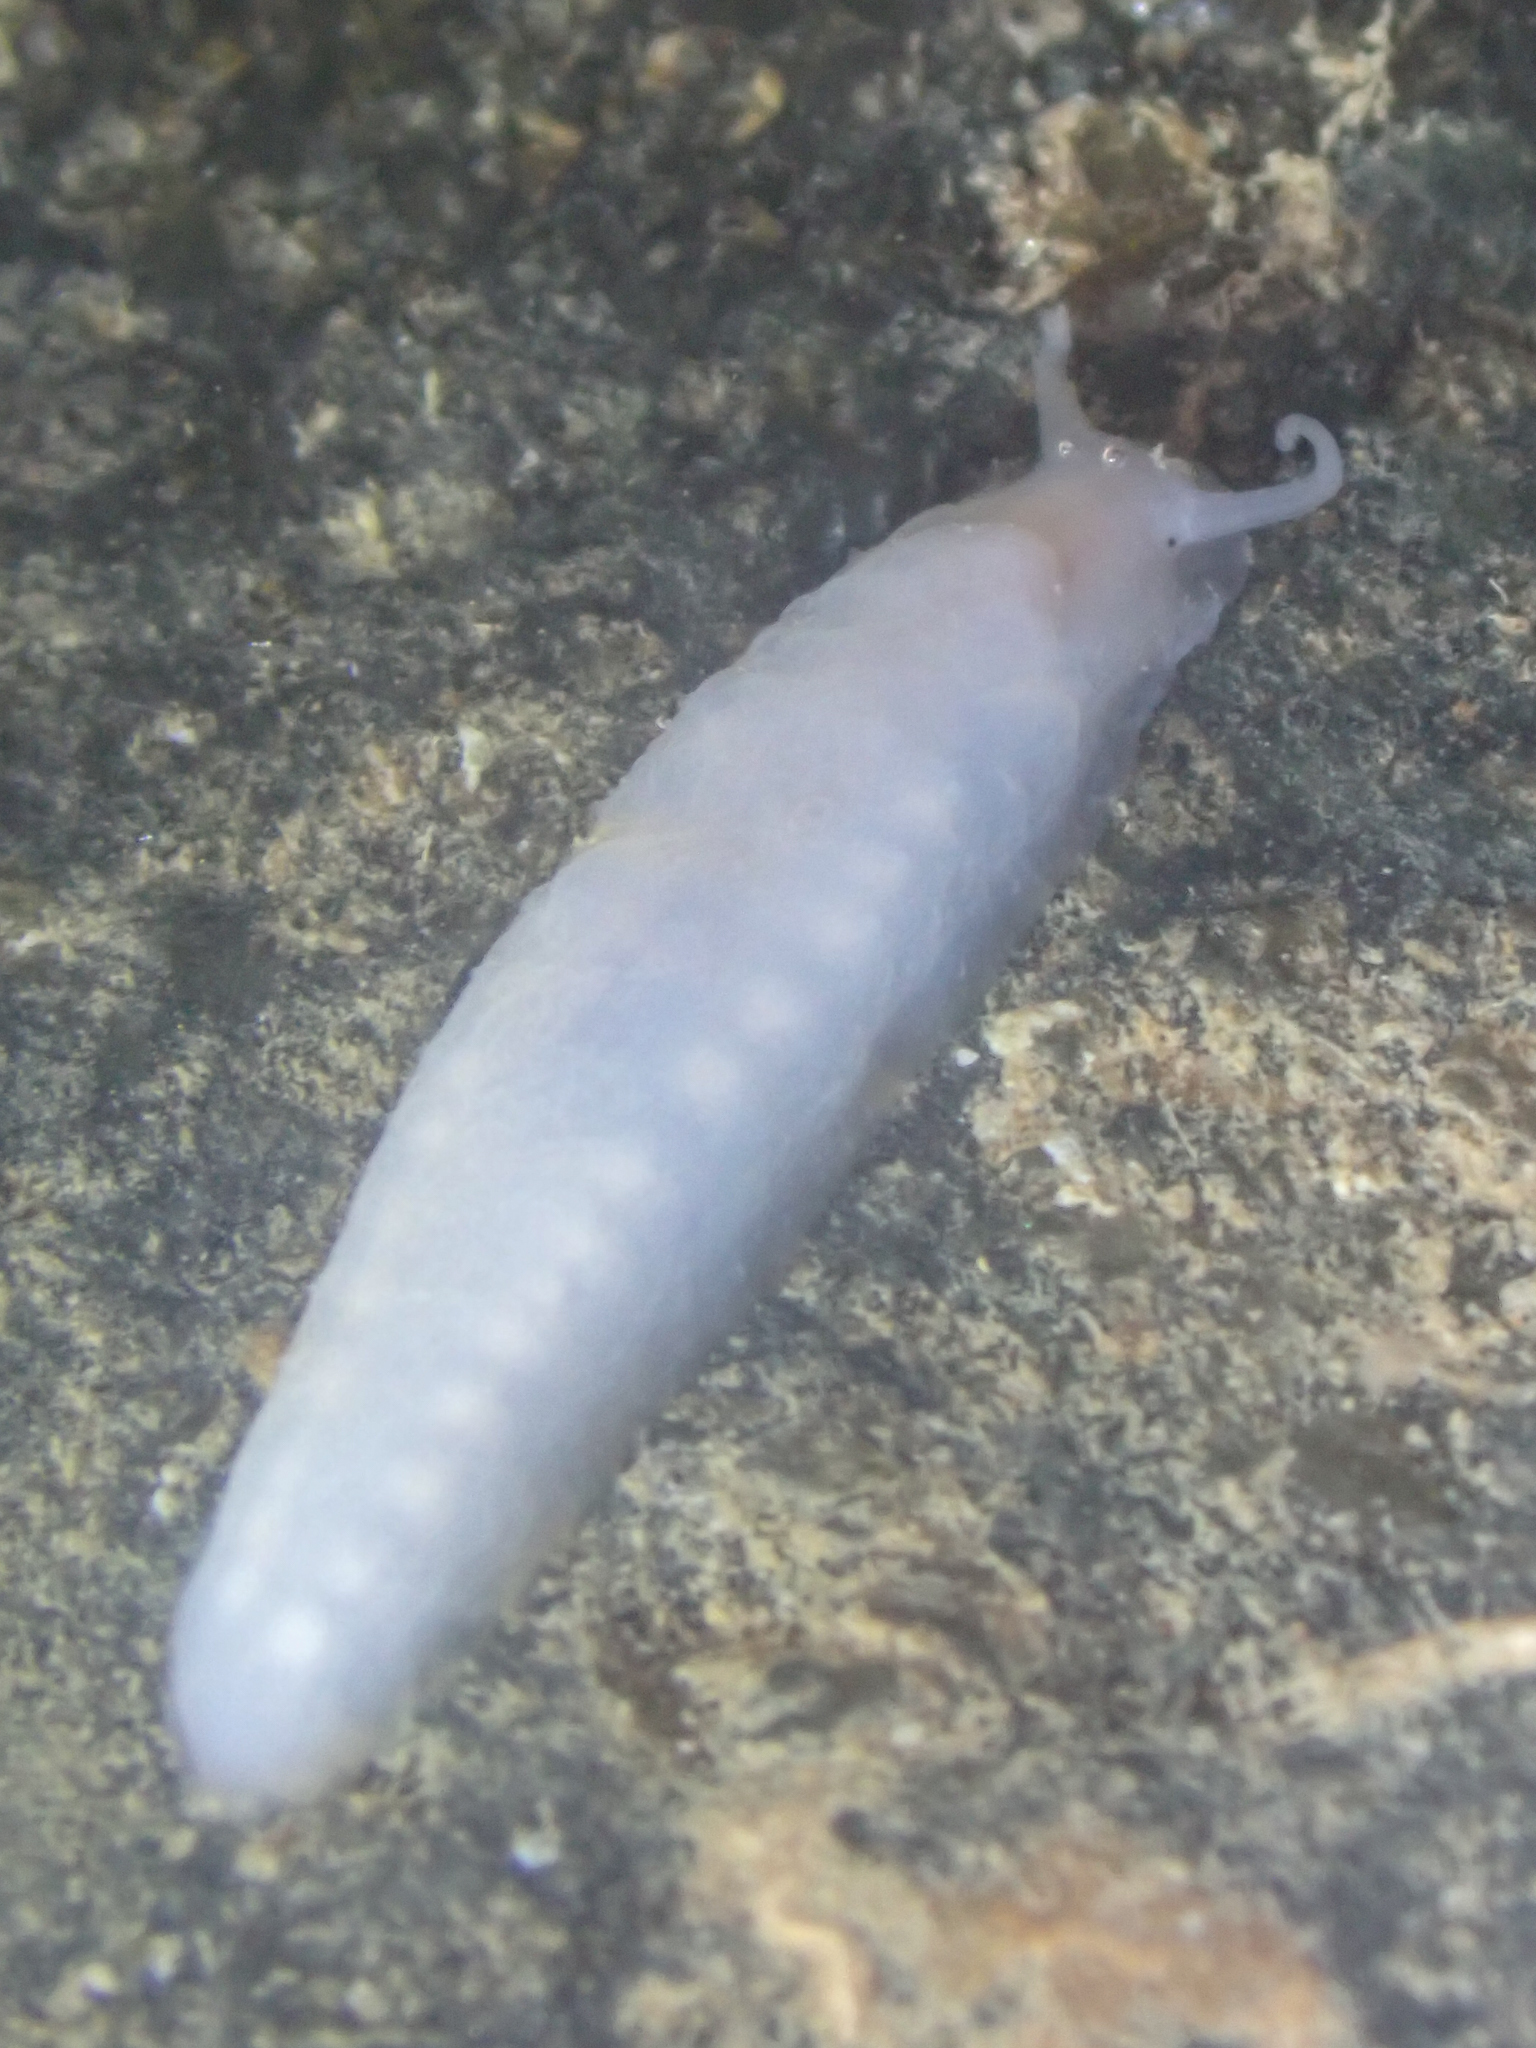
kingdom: Animalia
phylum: Mollusca
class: Gastropoda
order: Cycloneritida
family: Neritopsidae
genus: Titiscania
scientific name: Titiscania limacina
